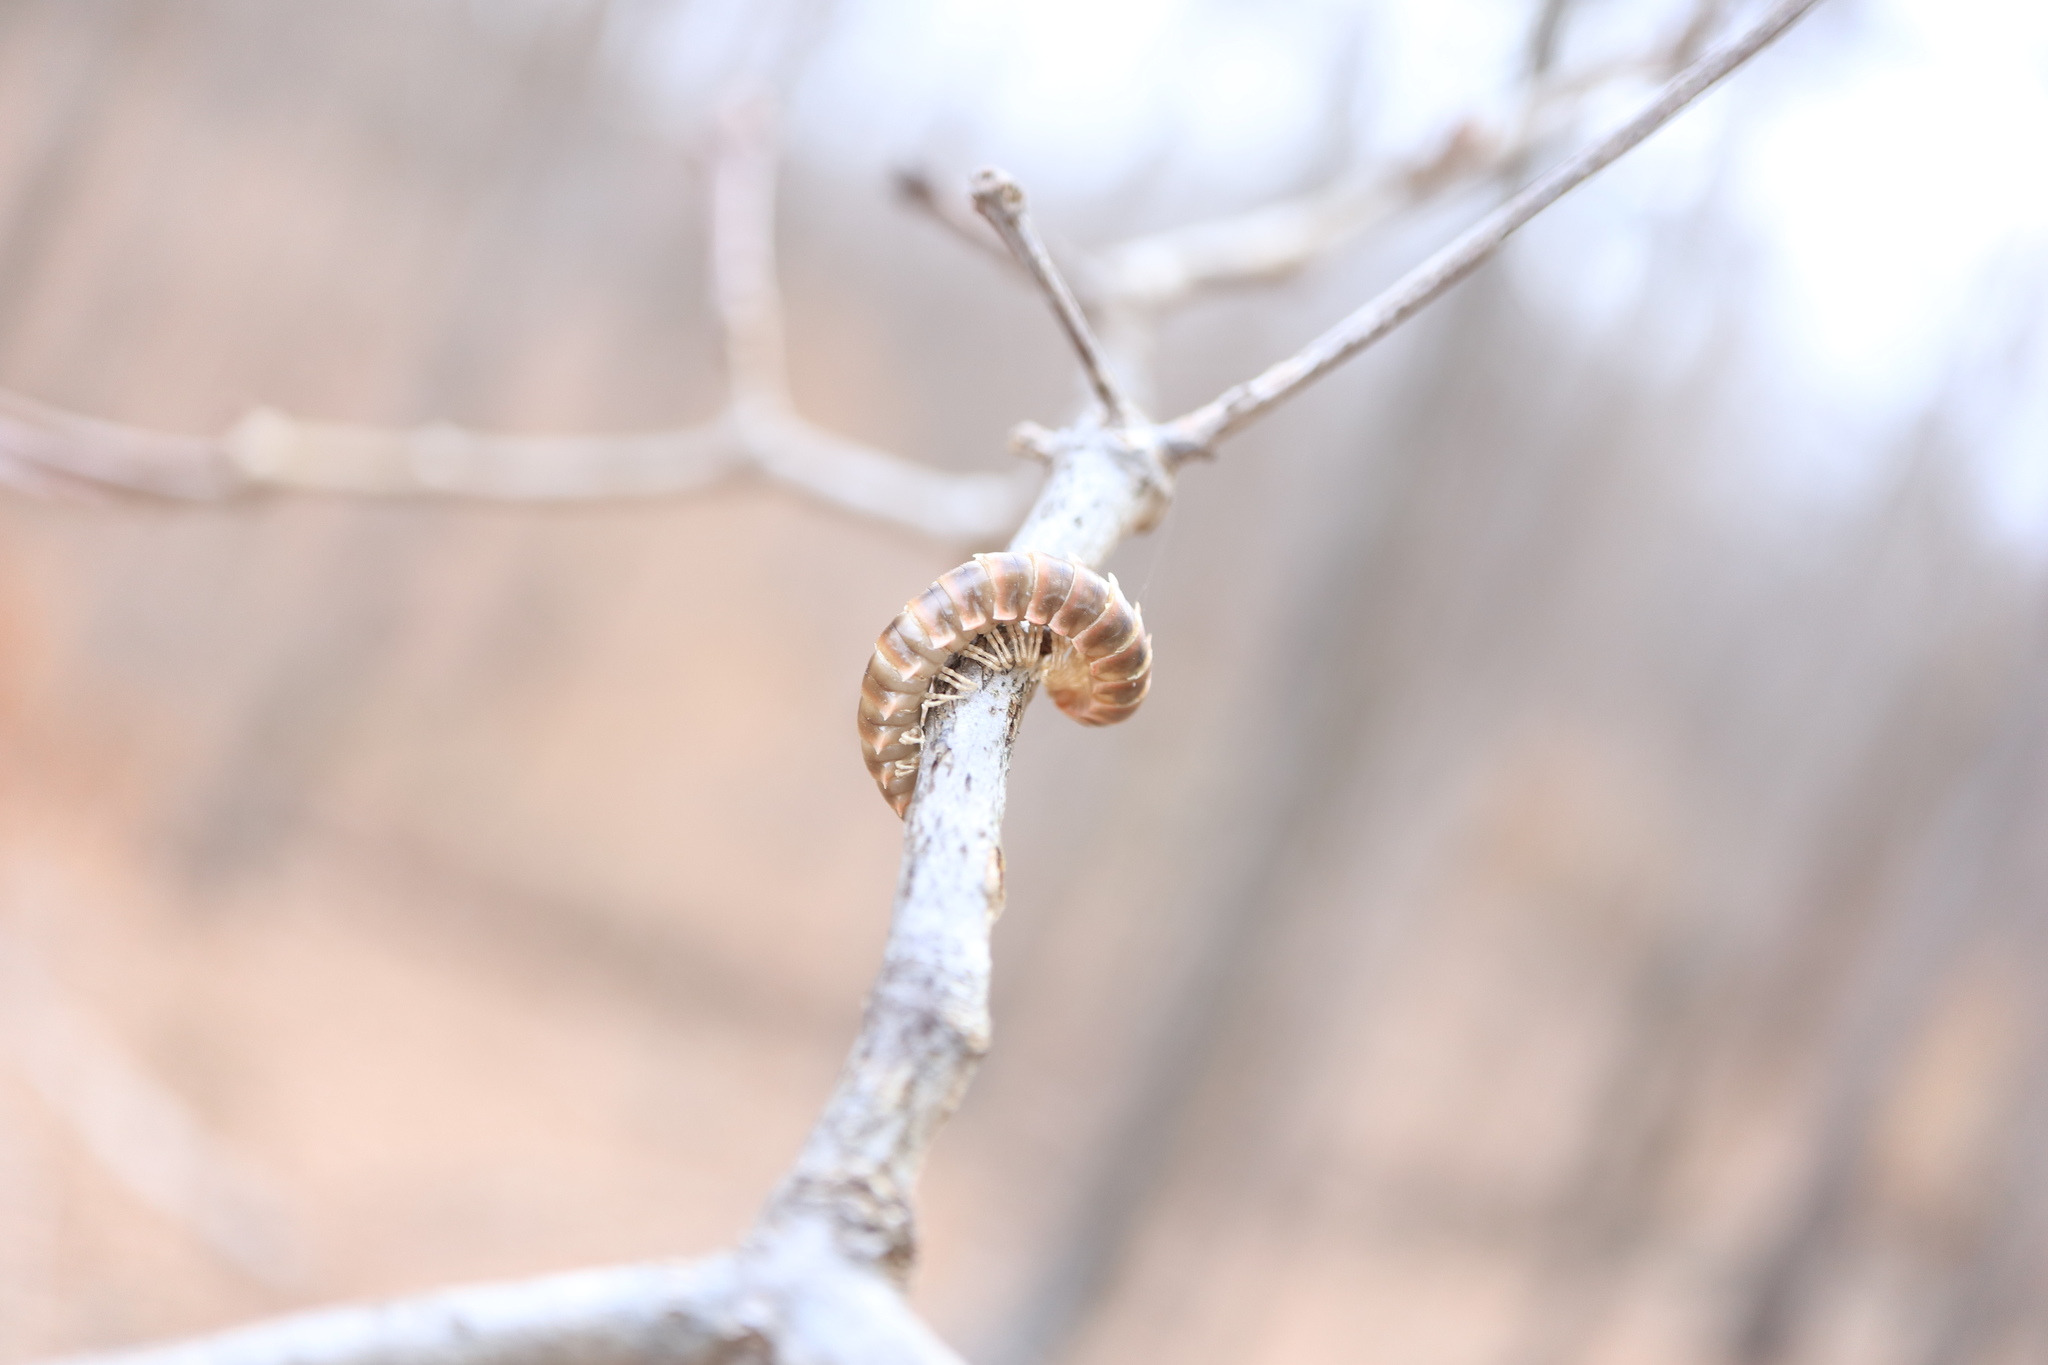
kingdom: Fungi
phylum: Entomophthoromycota
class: Entomophthoromycetes
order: Entomophthorales
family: Entomophthoraceae
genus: Arthrophaga
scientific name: Arthrophaga myriapodina
